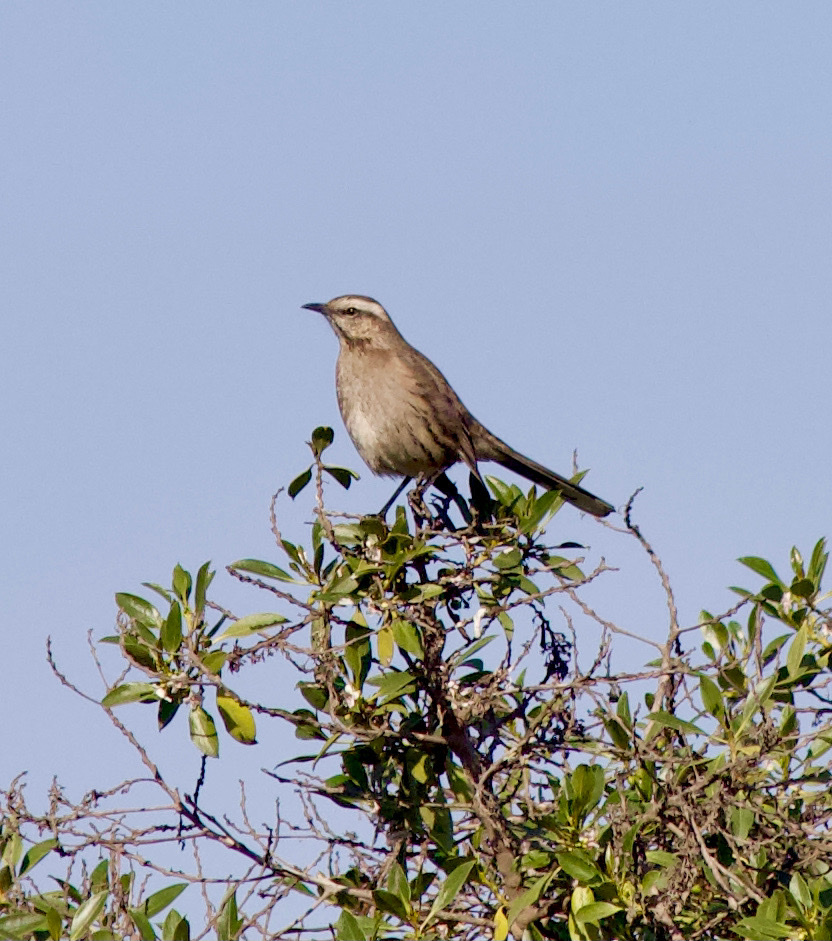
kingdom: Animalia
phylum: Chordata
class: Aves
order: Passeriformes
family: Mimidae
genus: Mimus
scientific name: Mimus thenca
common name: Chilean mockingbird
